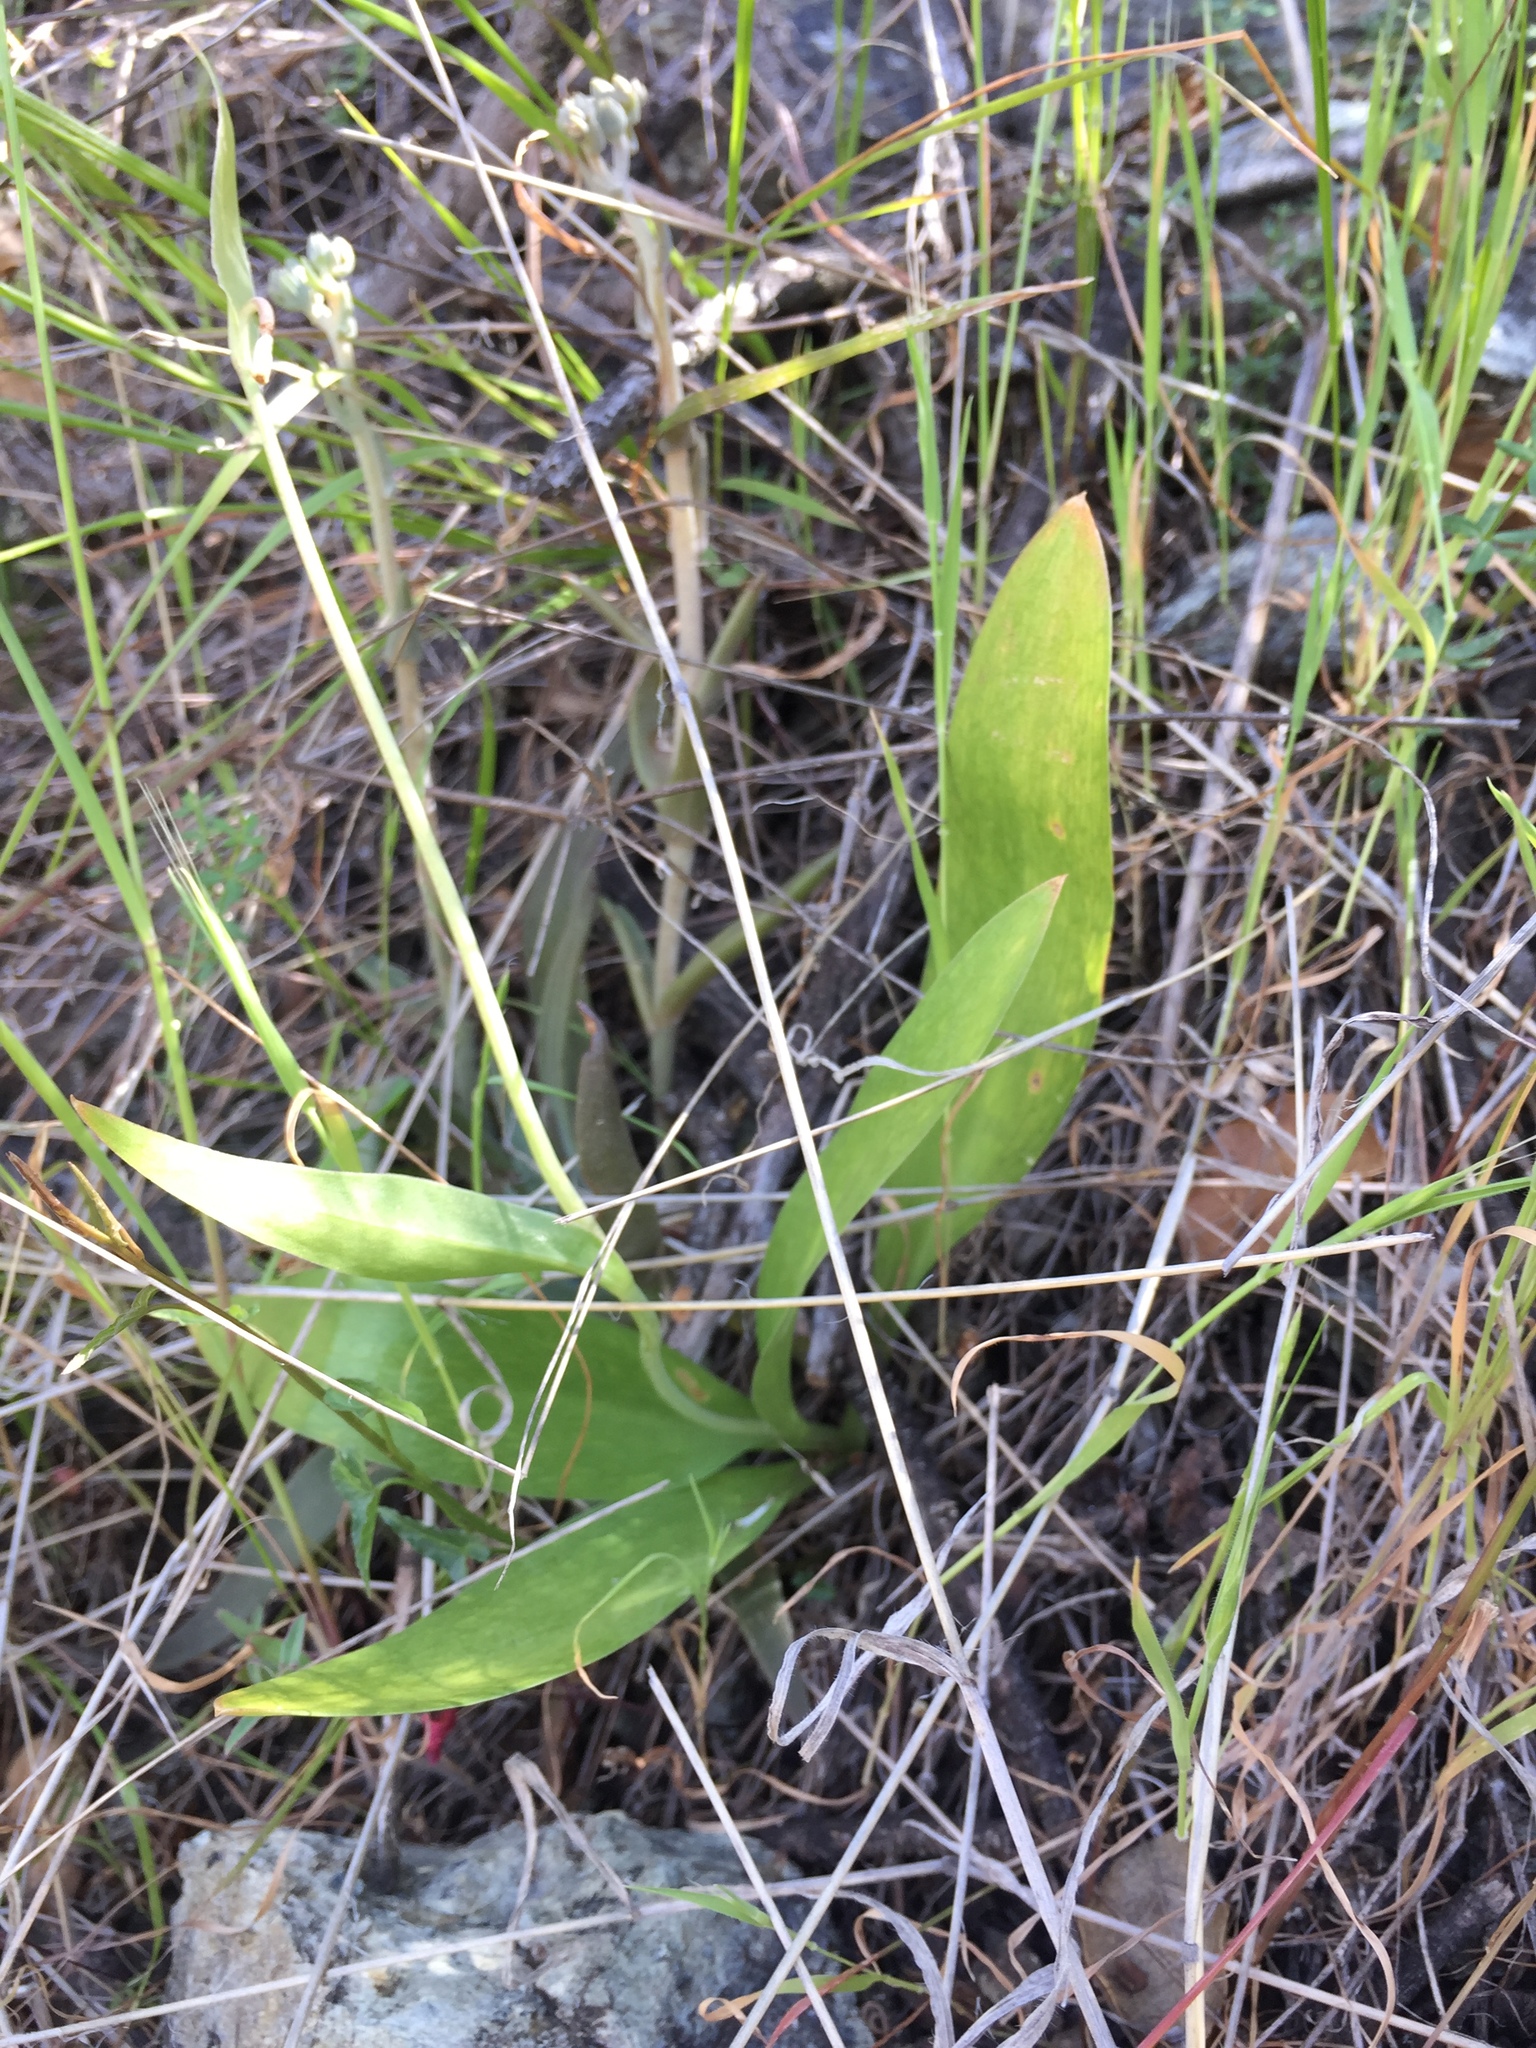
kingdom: Plantae
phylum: Tracheophyta
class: Liliopsida
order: Liliales
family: Liliaceae
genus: Fritillaria
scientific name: Fritillaria biflora
